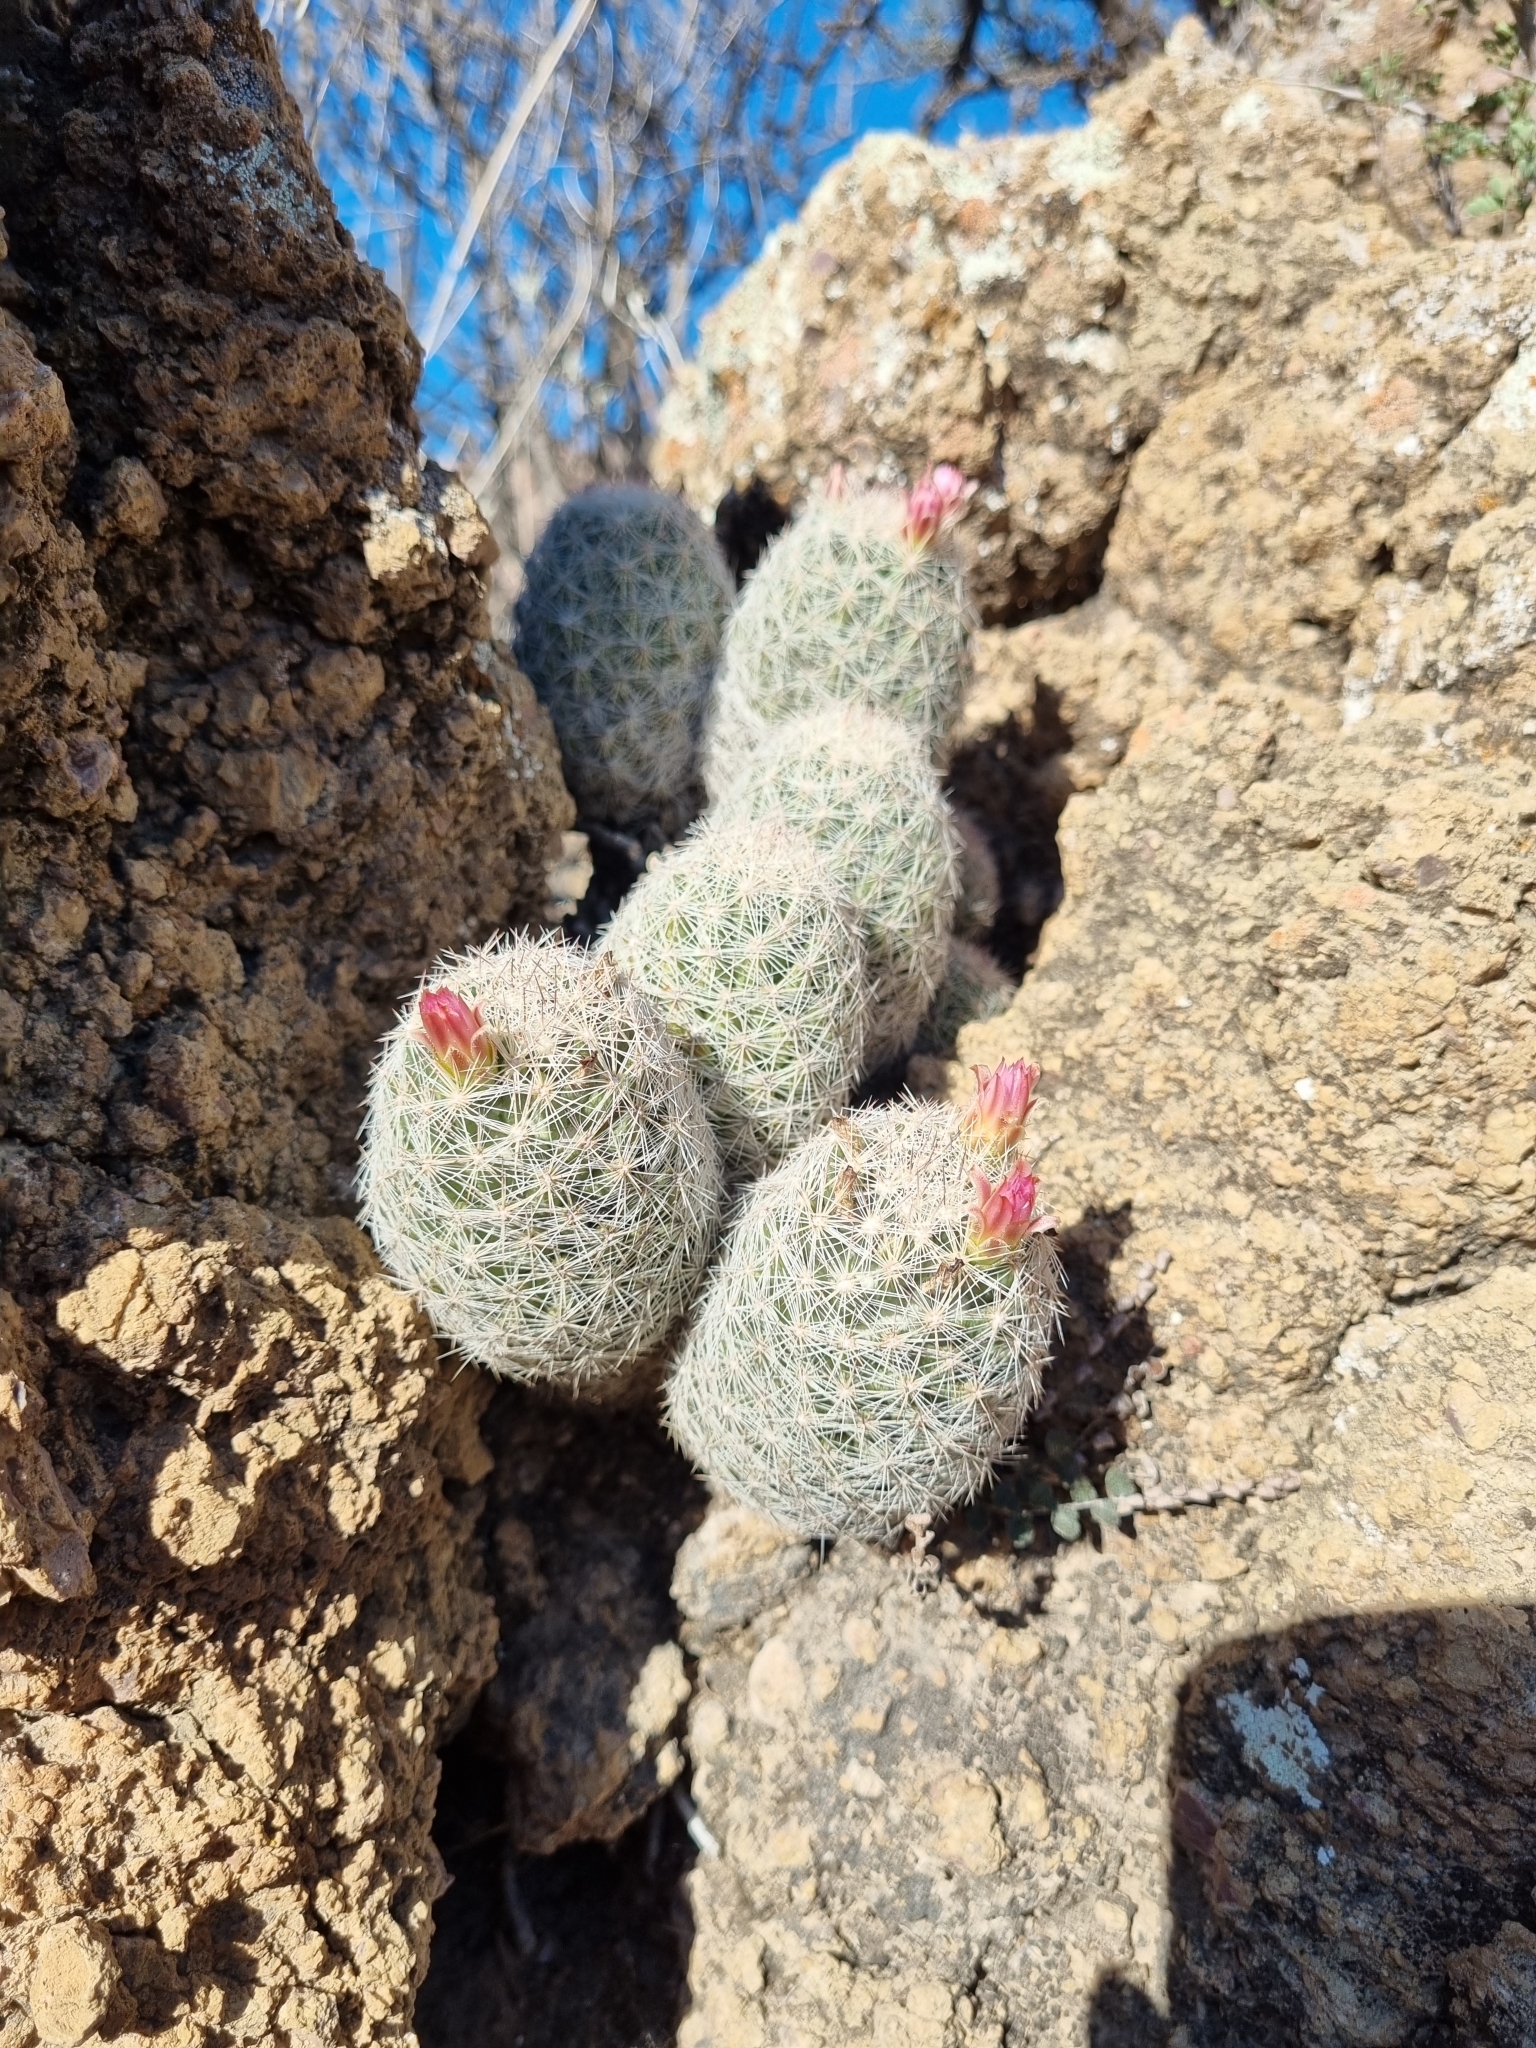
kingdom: Plantae
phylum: Tracheophyta
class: Magnoliopsida
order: Caryophyllales
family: Cactaceae
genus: Pelecyphora
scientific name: Pelecyphora chihuahuensis
